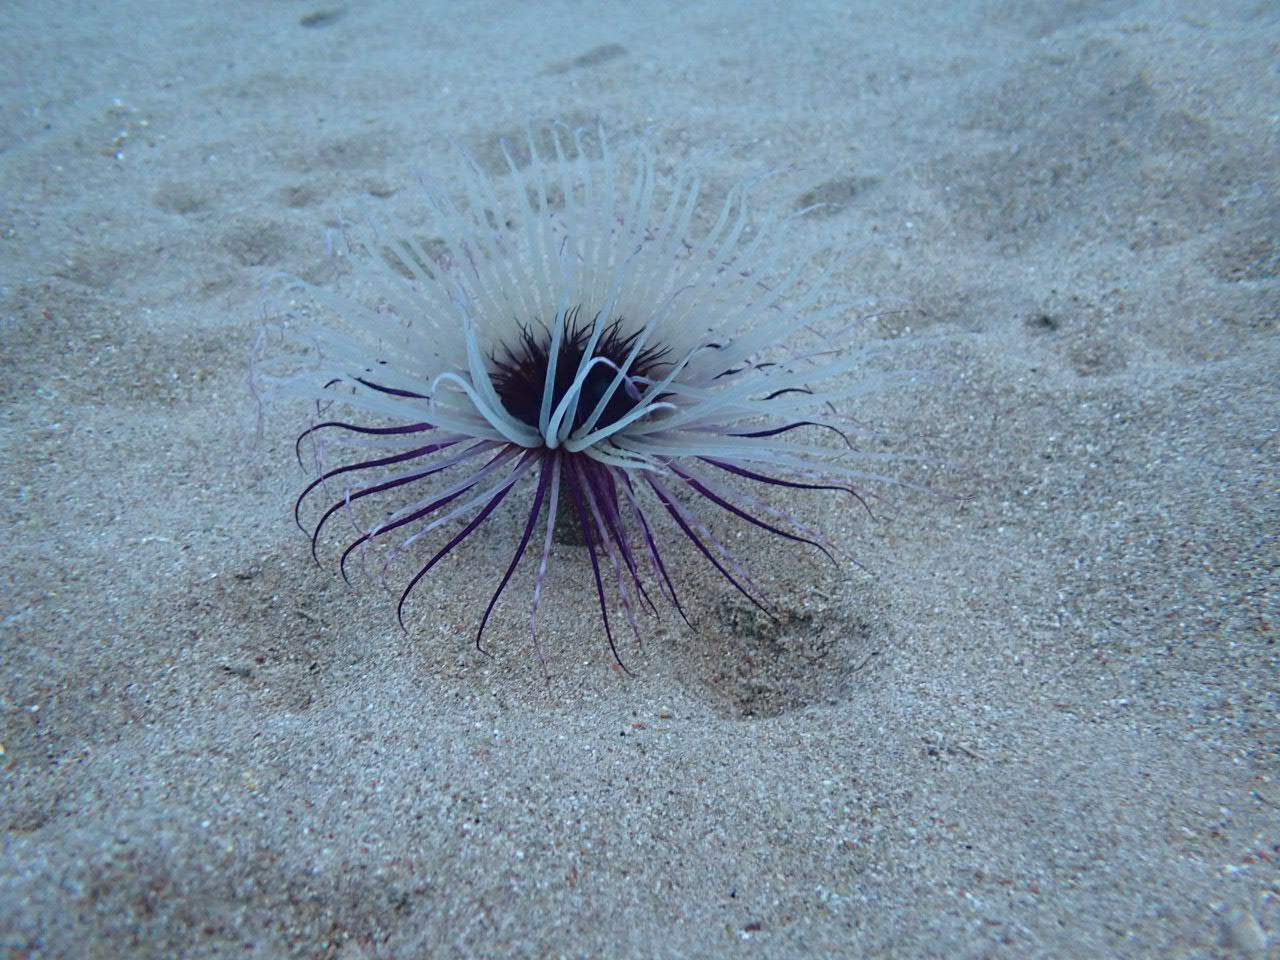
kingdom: Animalia
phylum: Cnidaria
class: Anthozoa
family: Cerianthidae
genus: Pachycerianthus
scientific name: Pachycerianthus solitarius
